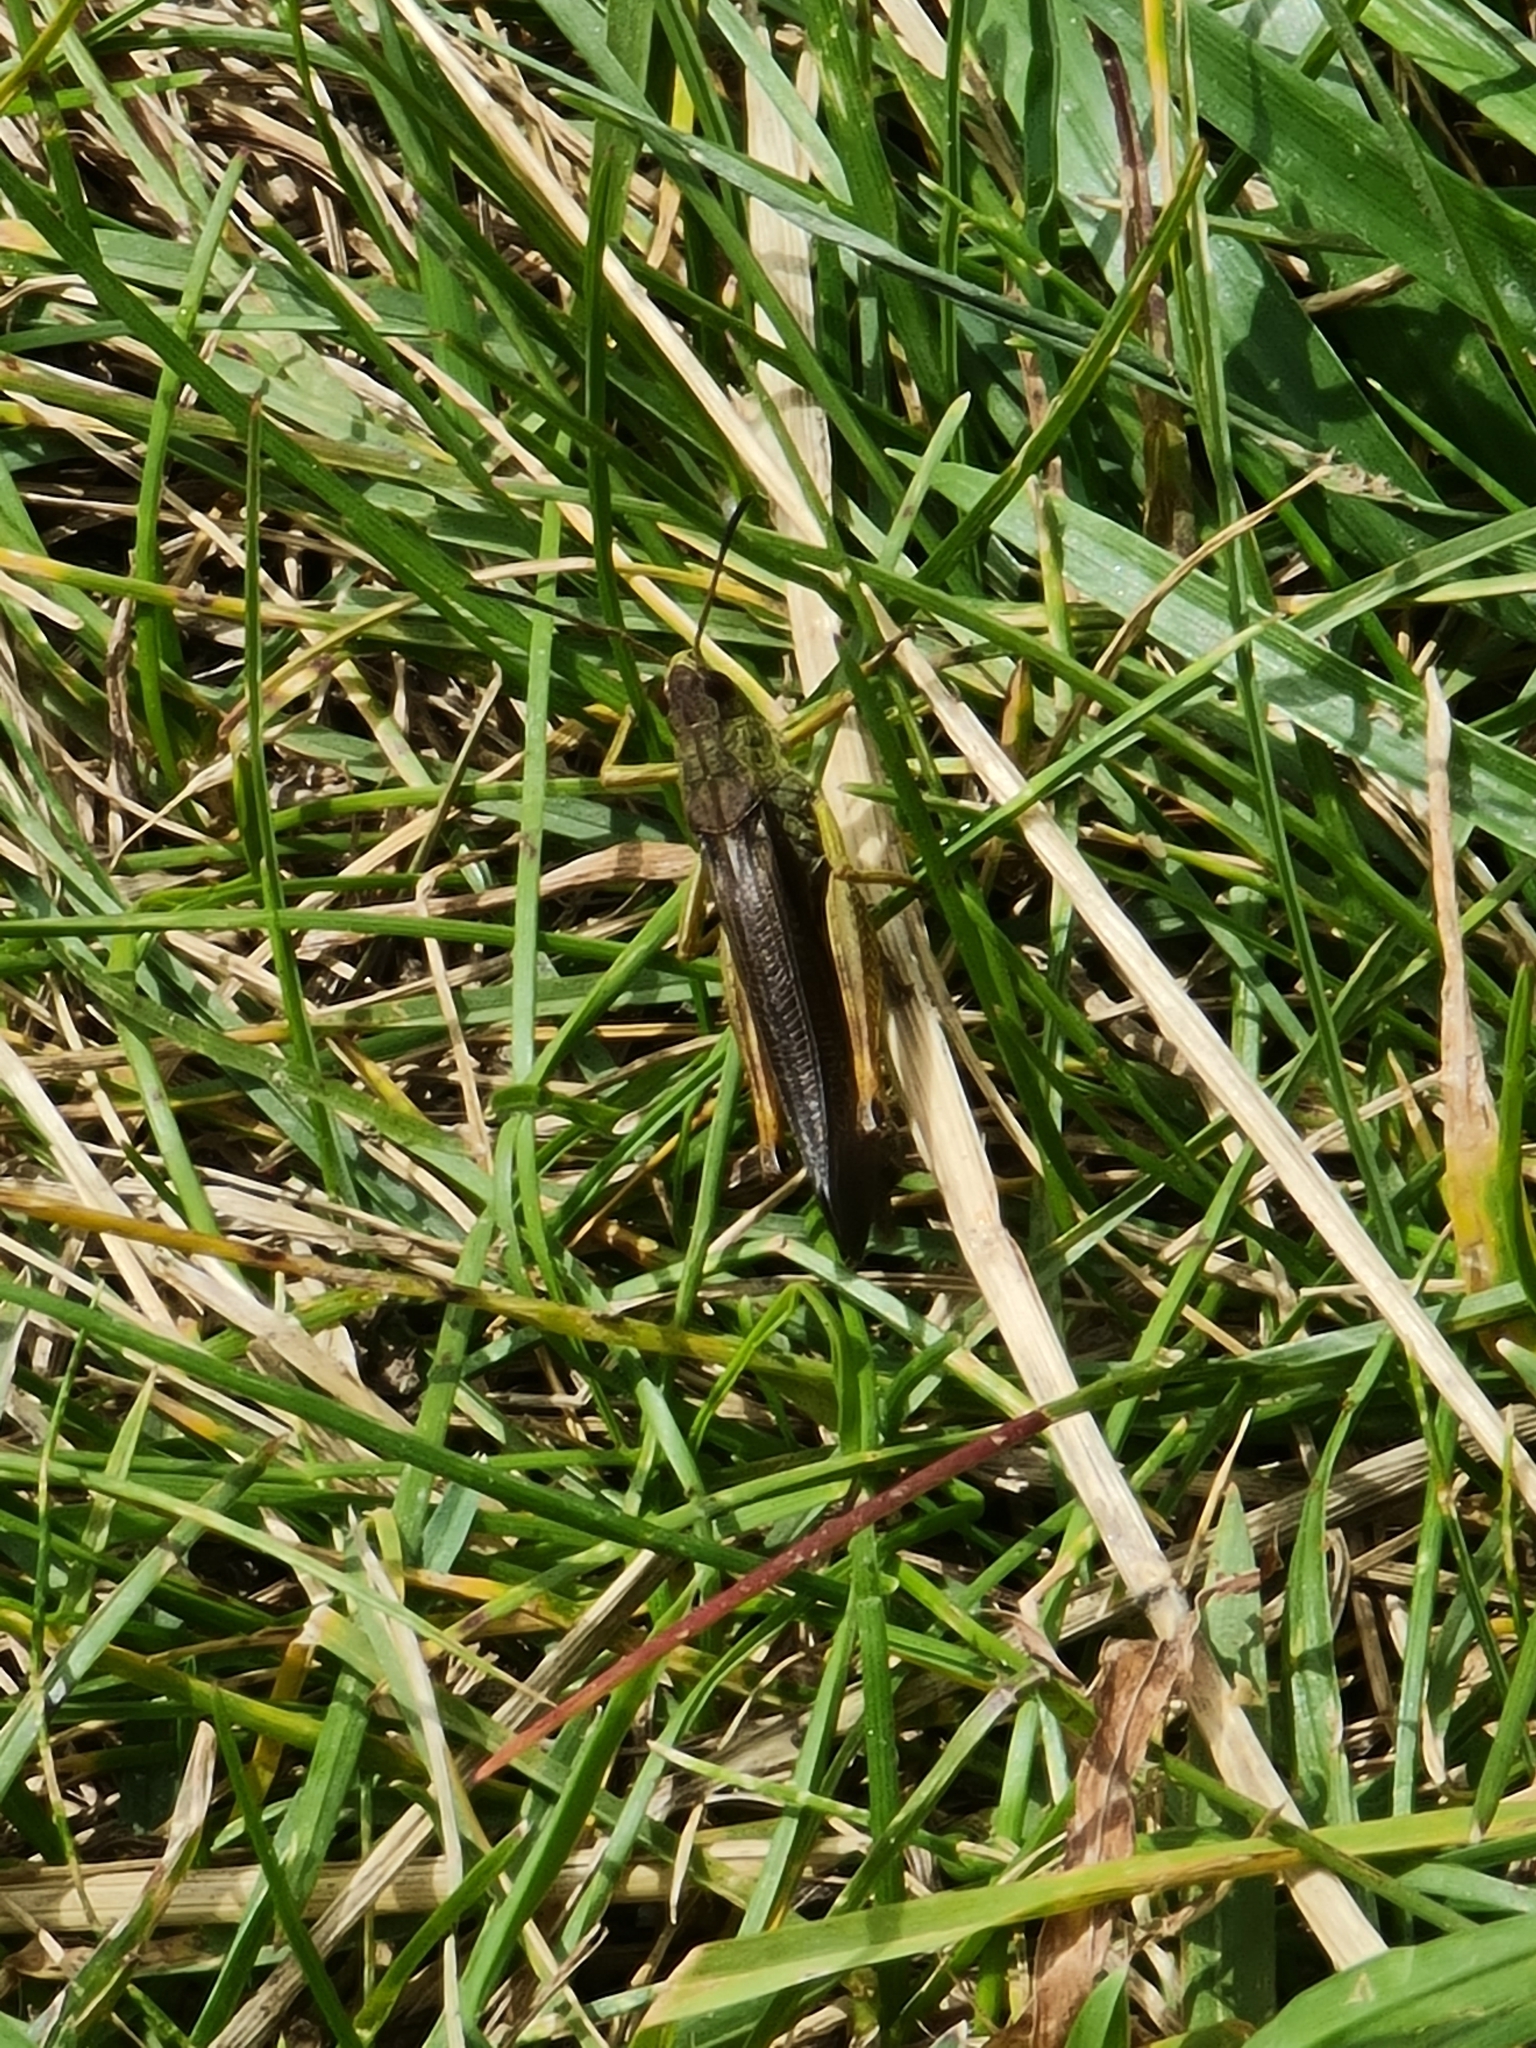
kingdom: Animalia
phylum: Arthropoda
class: Insecta
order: Orthoptera
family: Acrididae
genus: Stauroderus
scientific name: Stauroderus scalaris
